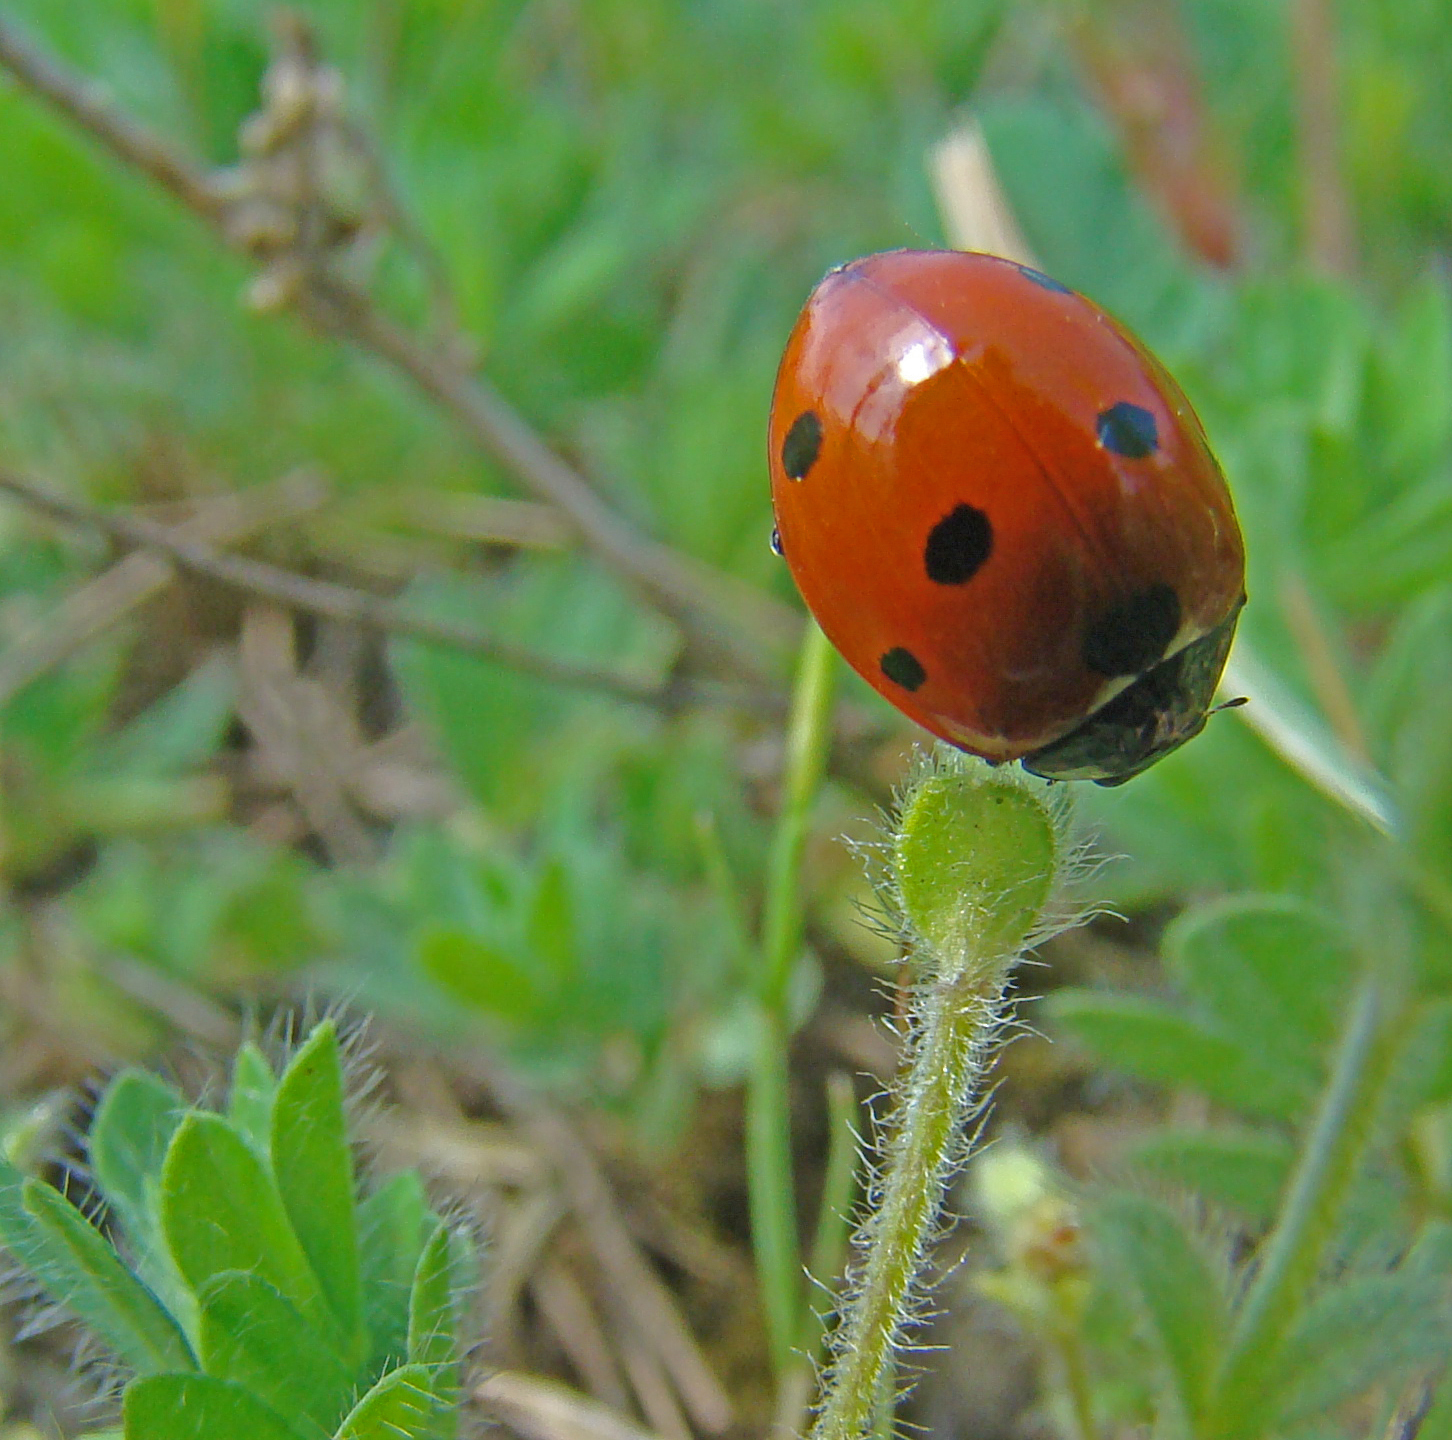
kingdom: Animalia
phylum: Arthropoda
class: Insecta
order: Coleoptera
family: Coccinellidae
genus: Coccinella
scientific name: Coccinella septempunctata
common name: Sevenspotted lady beetle
